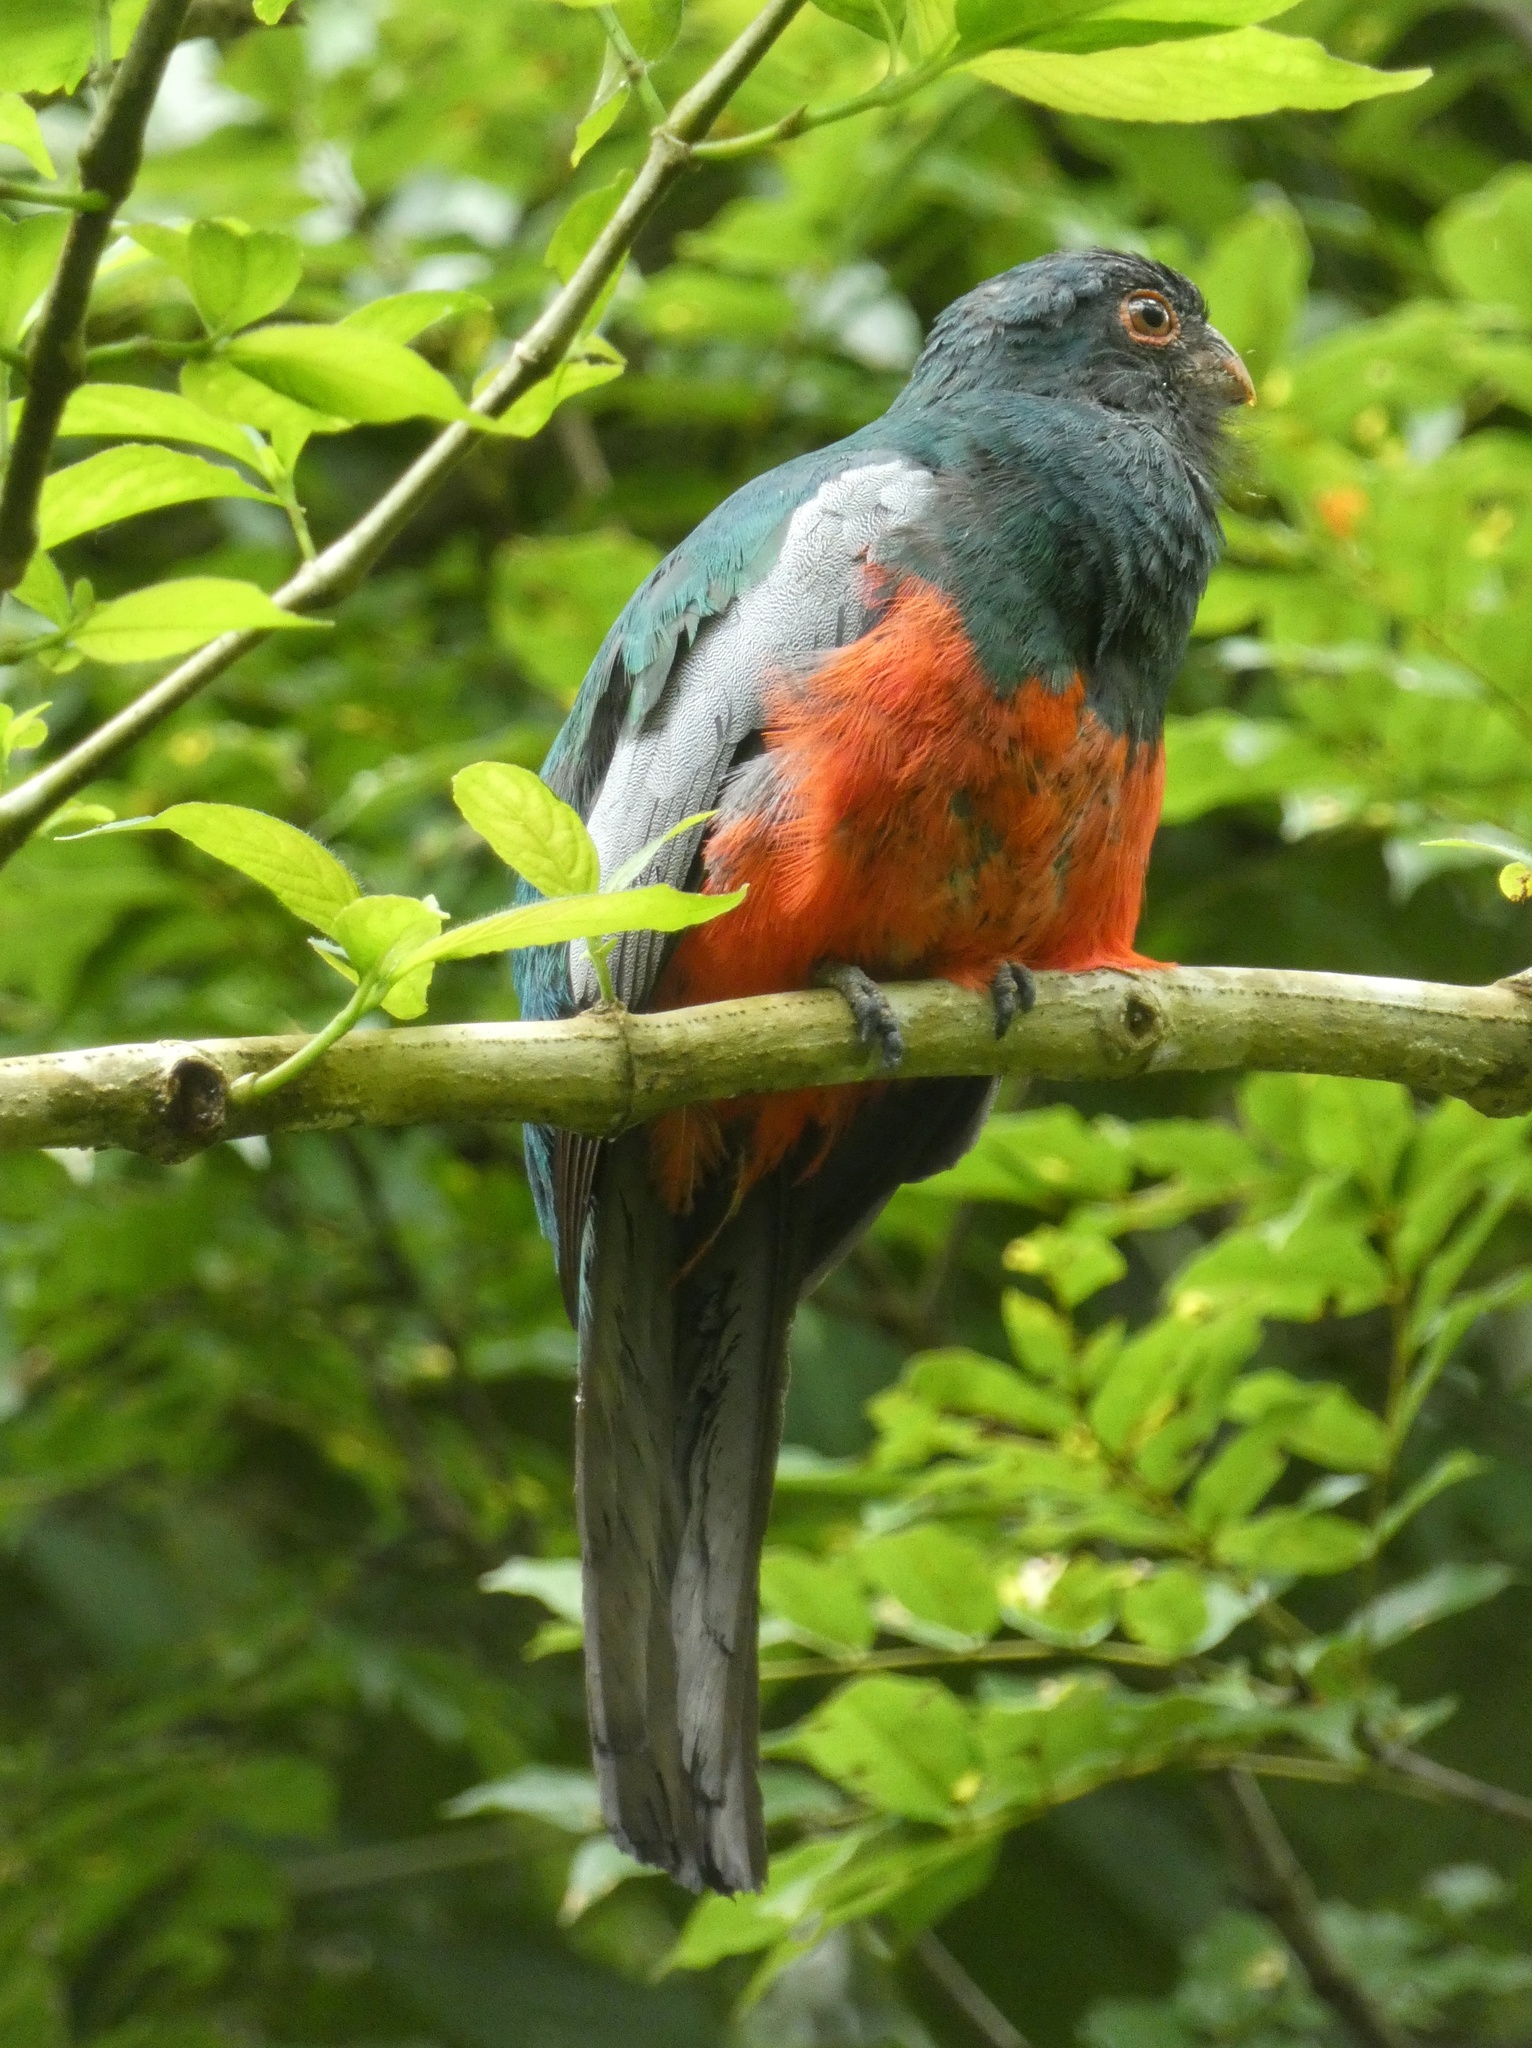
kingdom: Animalia
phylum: Chordata
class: Aves
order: Trogoniformes
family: Trogonidae
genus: Trogon
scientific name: Trogon massena
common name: Slaty-tailed trogon
